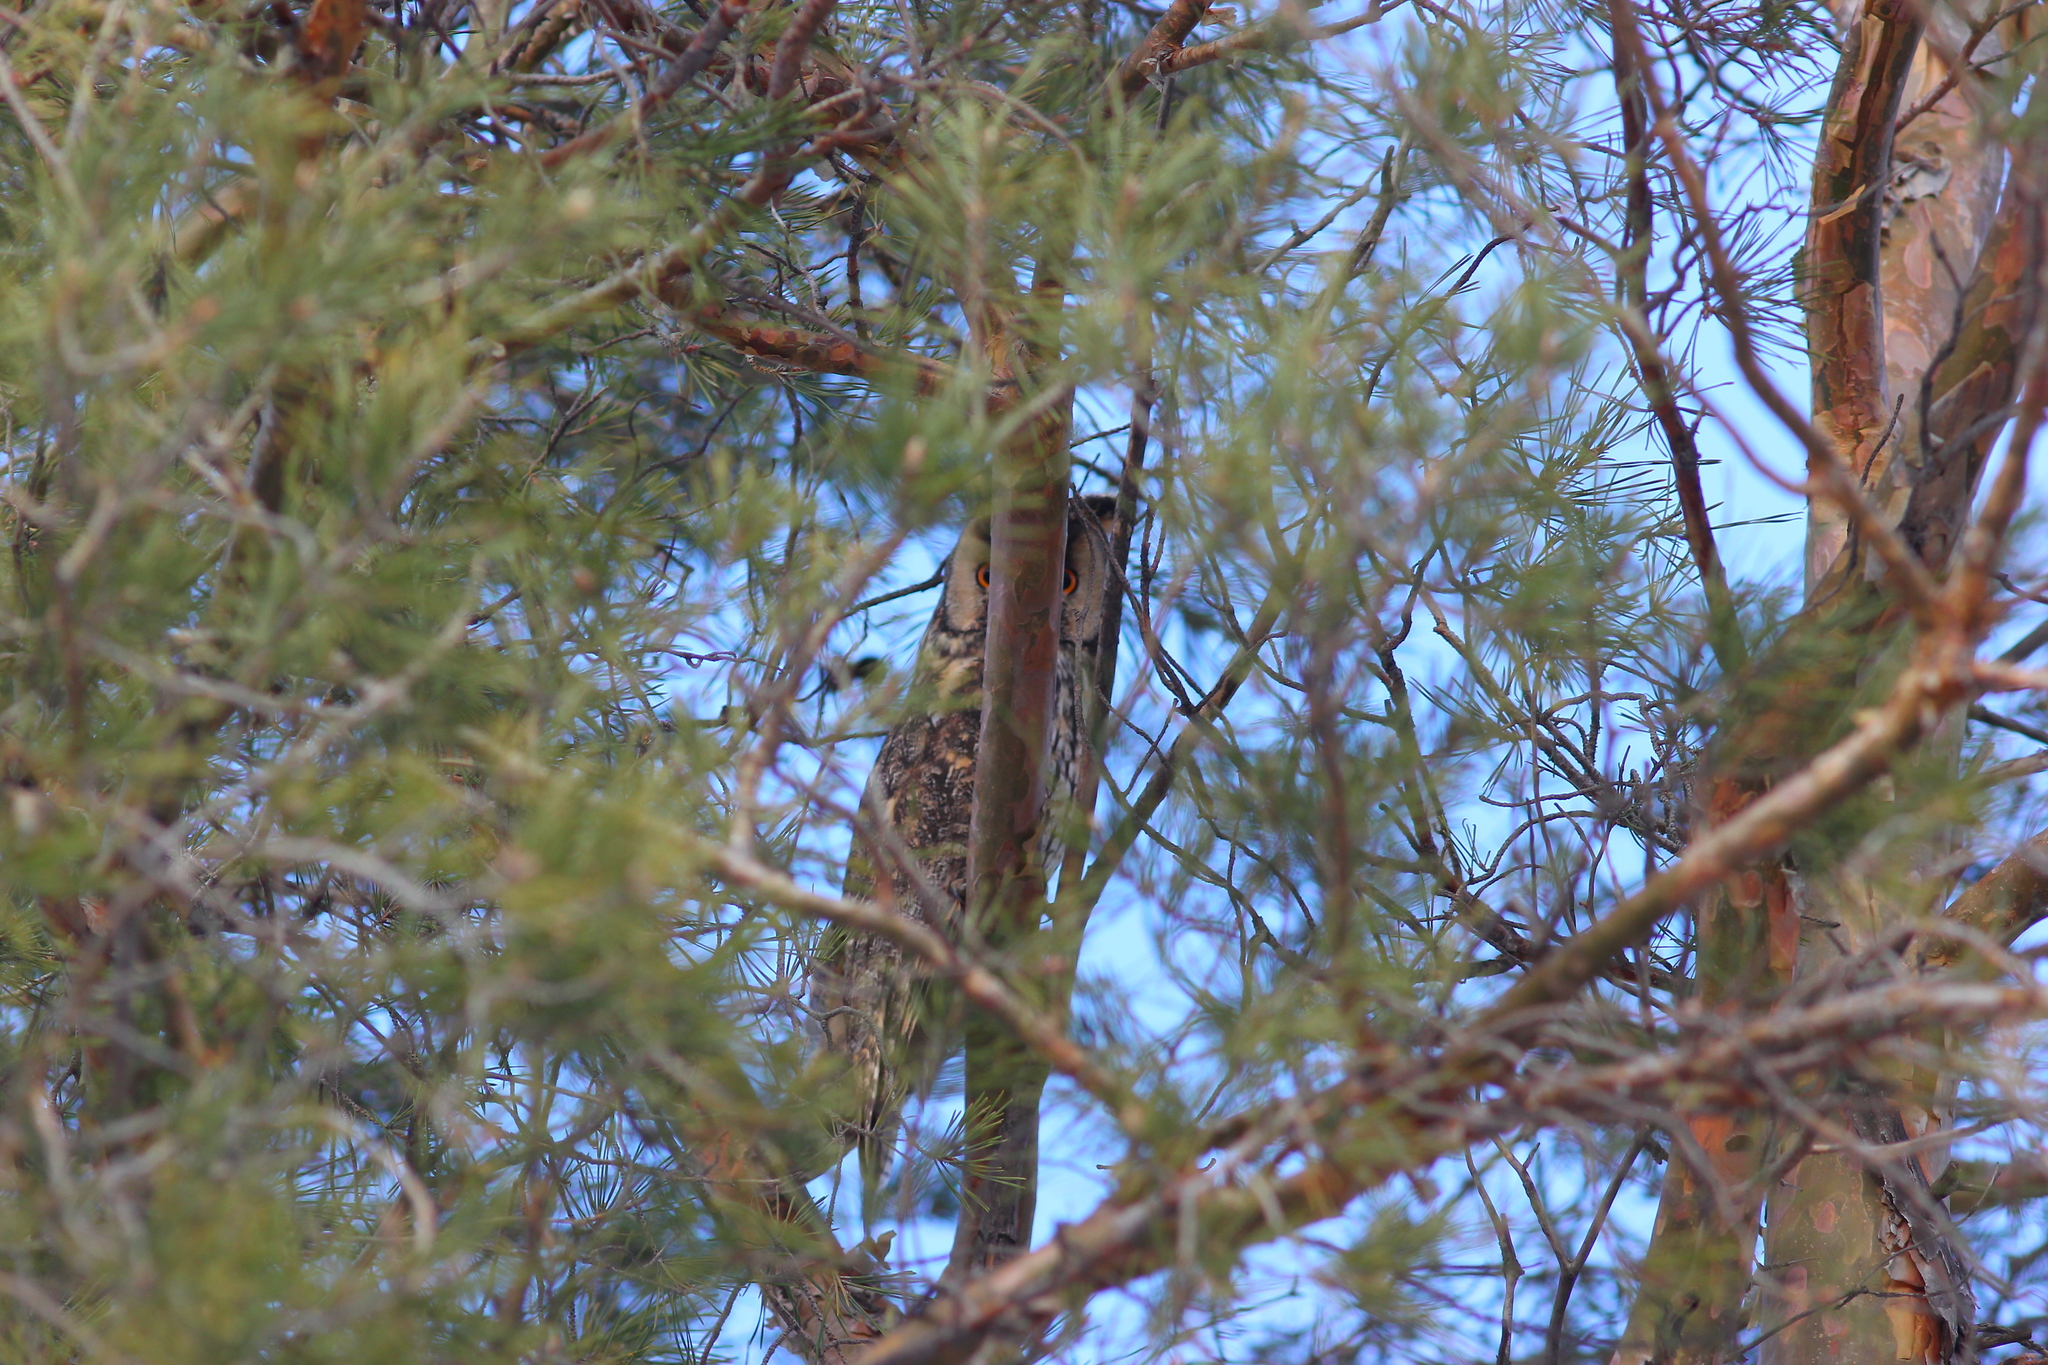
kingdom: Animalia
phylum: Chordata
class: Aves
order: Strigiformes
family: Strigidae
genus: Asio
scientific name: Asio otus
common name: Long-eared owl
